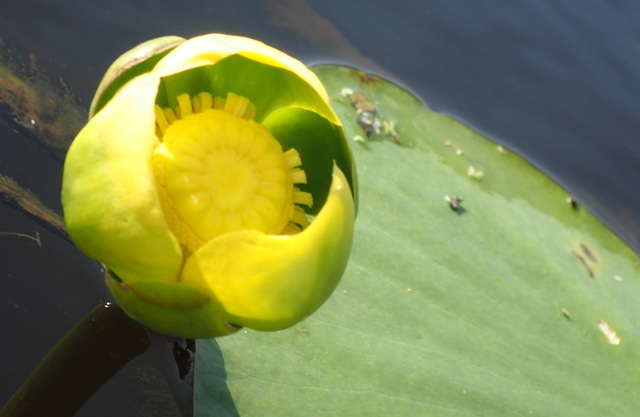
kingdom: Plantae
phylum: Tracheophyta
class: Magnoliopsida
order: Nymphaeales
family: Nymphaeaceae
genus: Nuphar
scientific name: Nuphar advena
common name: Spatter-dock
